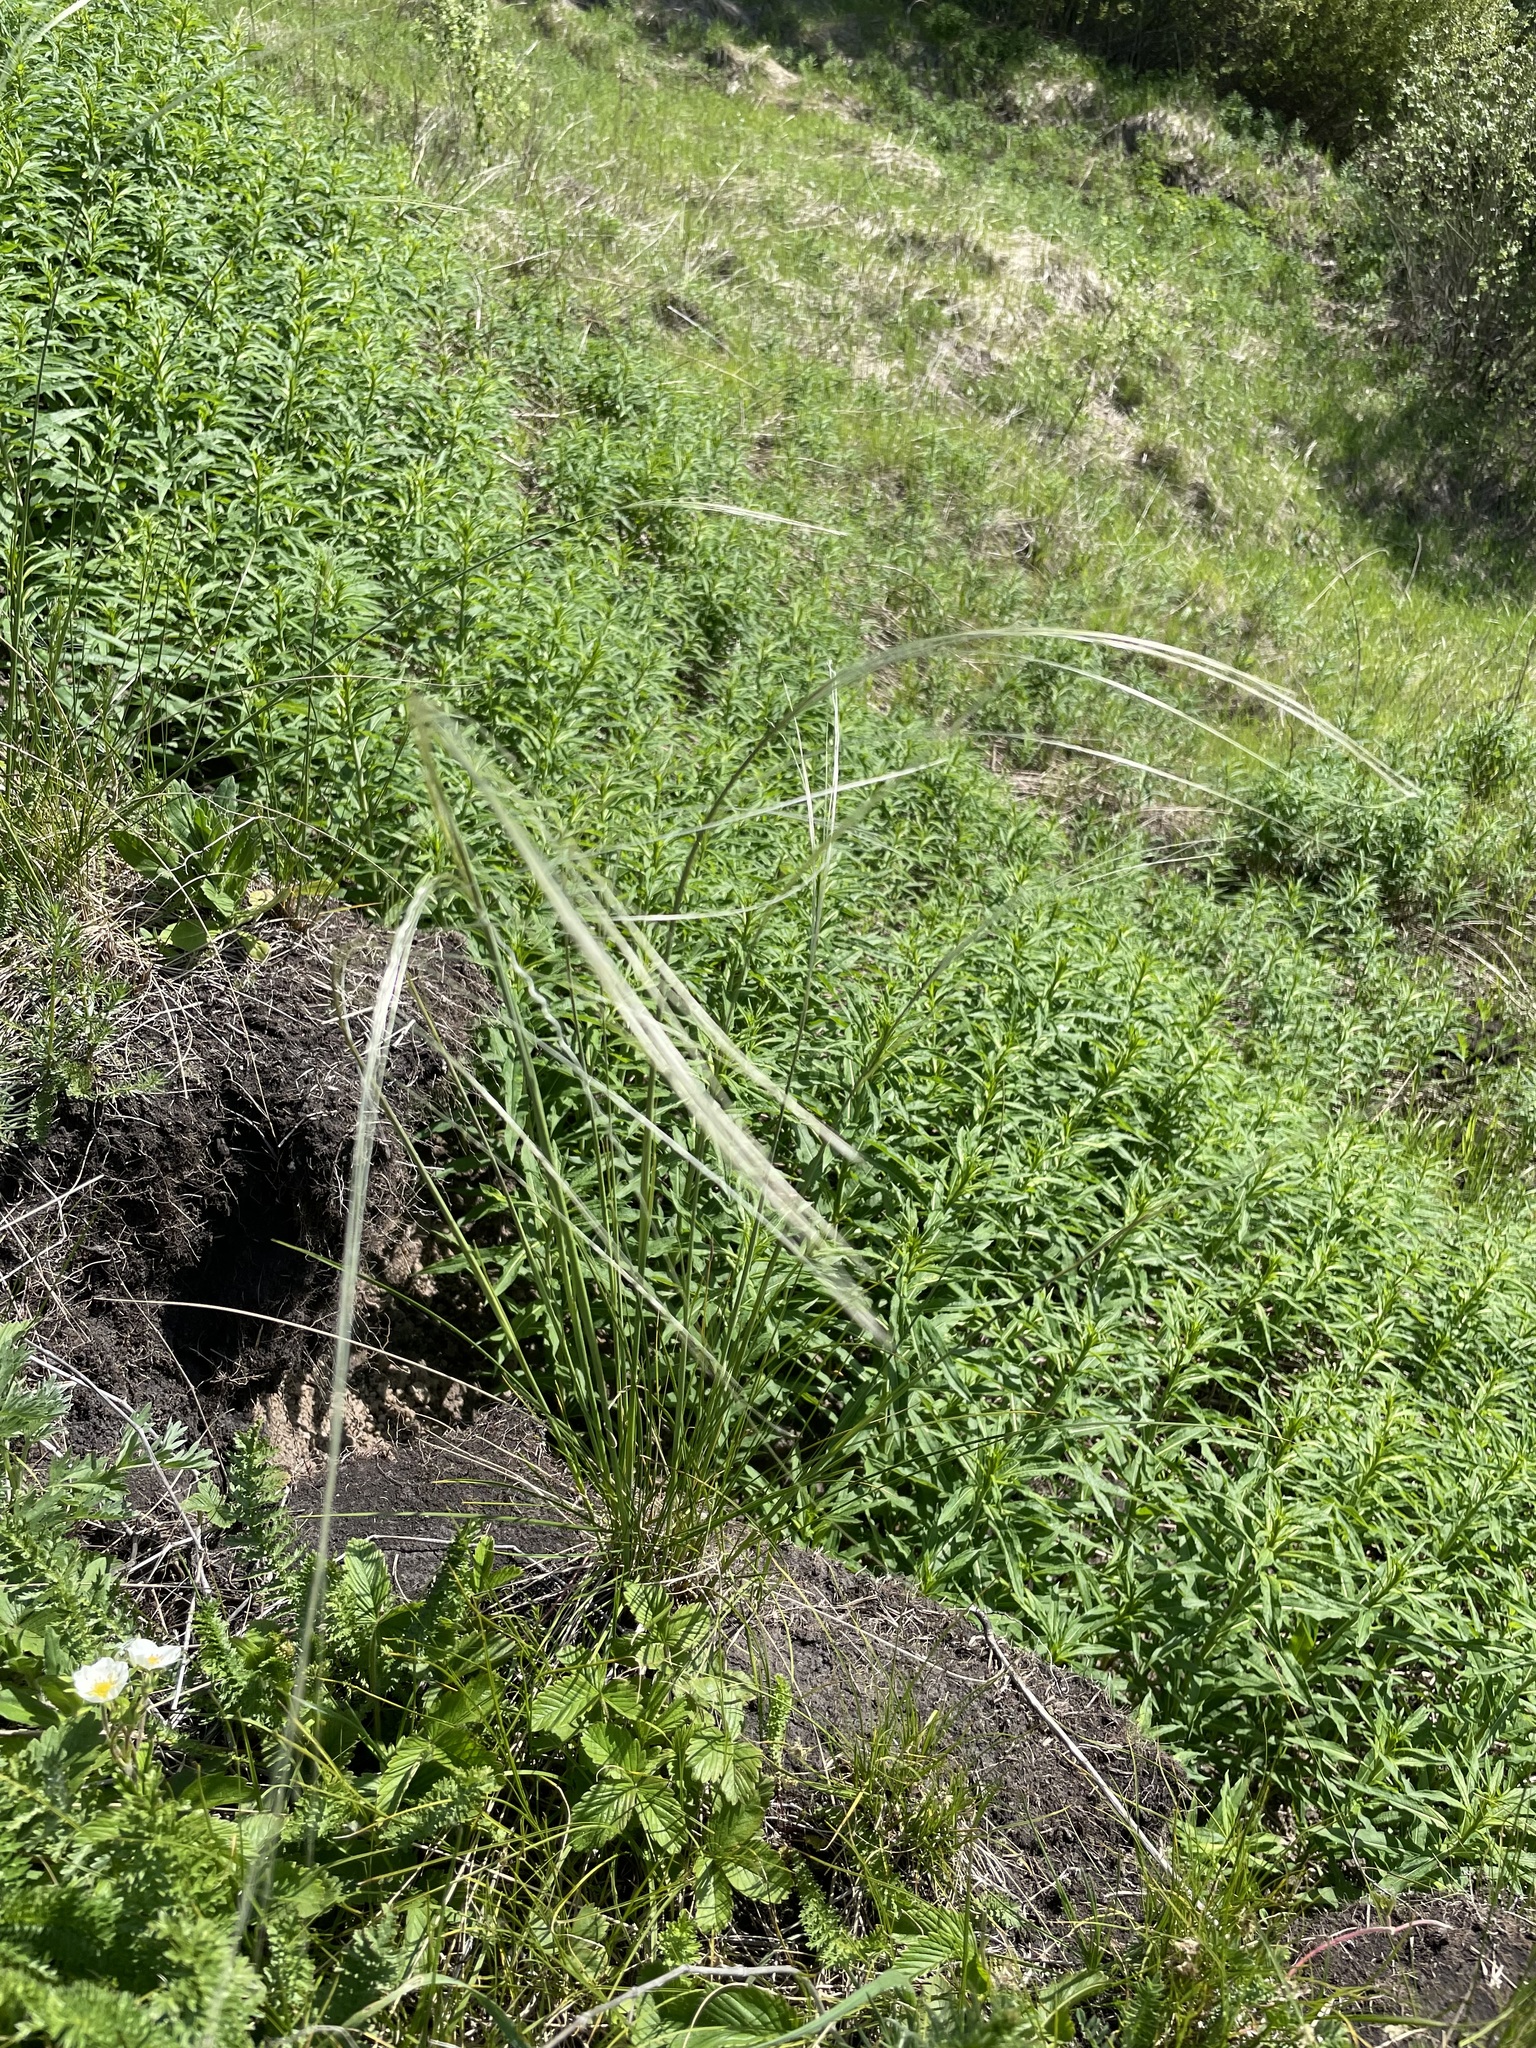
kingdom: Plantae
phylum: Tracheophyta
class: Liliopsida
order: Poales
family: Poaceae
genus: Stipa
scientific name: Stipa pennata
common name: European feather grass
